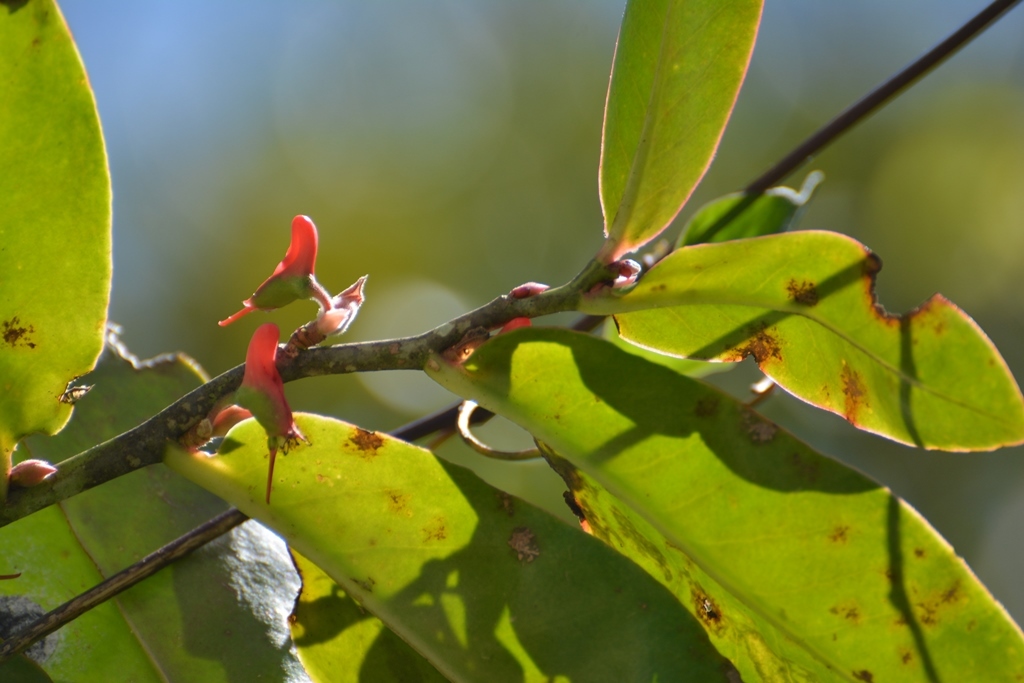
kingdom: Plantae
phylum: Tracheophyta
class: Magnoliopsida
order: Malpighiales
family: Euphorbiaceae
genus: Euphorbia
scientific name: Euphorbia calcarata
